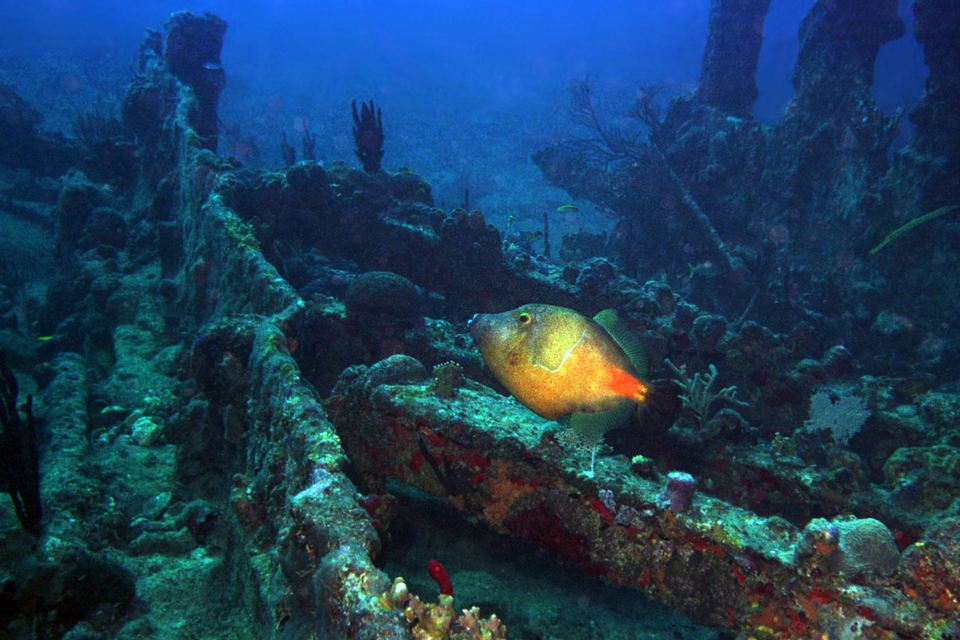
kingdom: Animalia
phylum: Chordata
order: Tetraodontiformes
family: Monacanthidae
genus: Cantherhines
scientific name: Cantherhines macrocerus
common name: Whitespotted filefish
